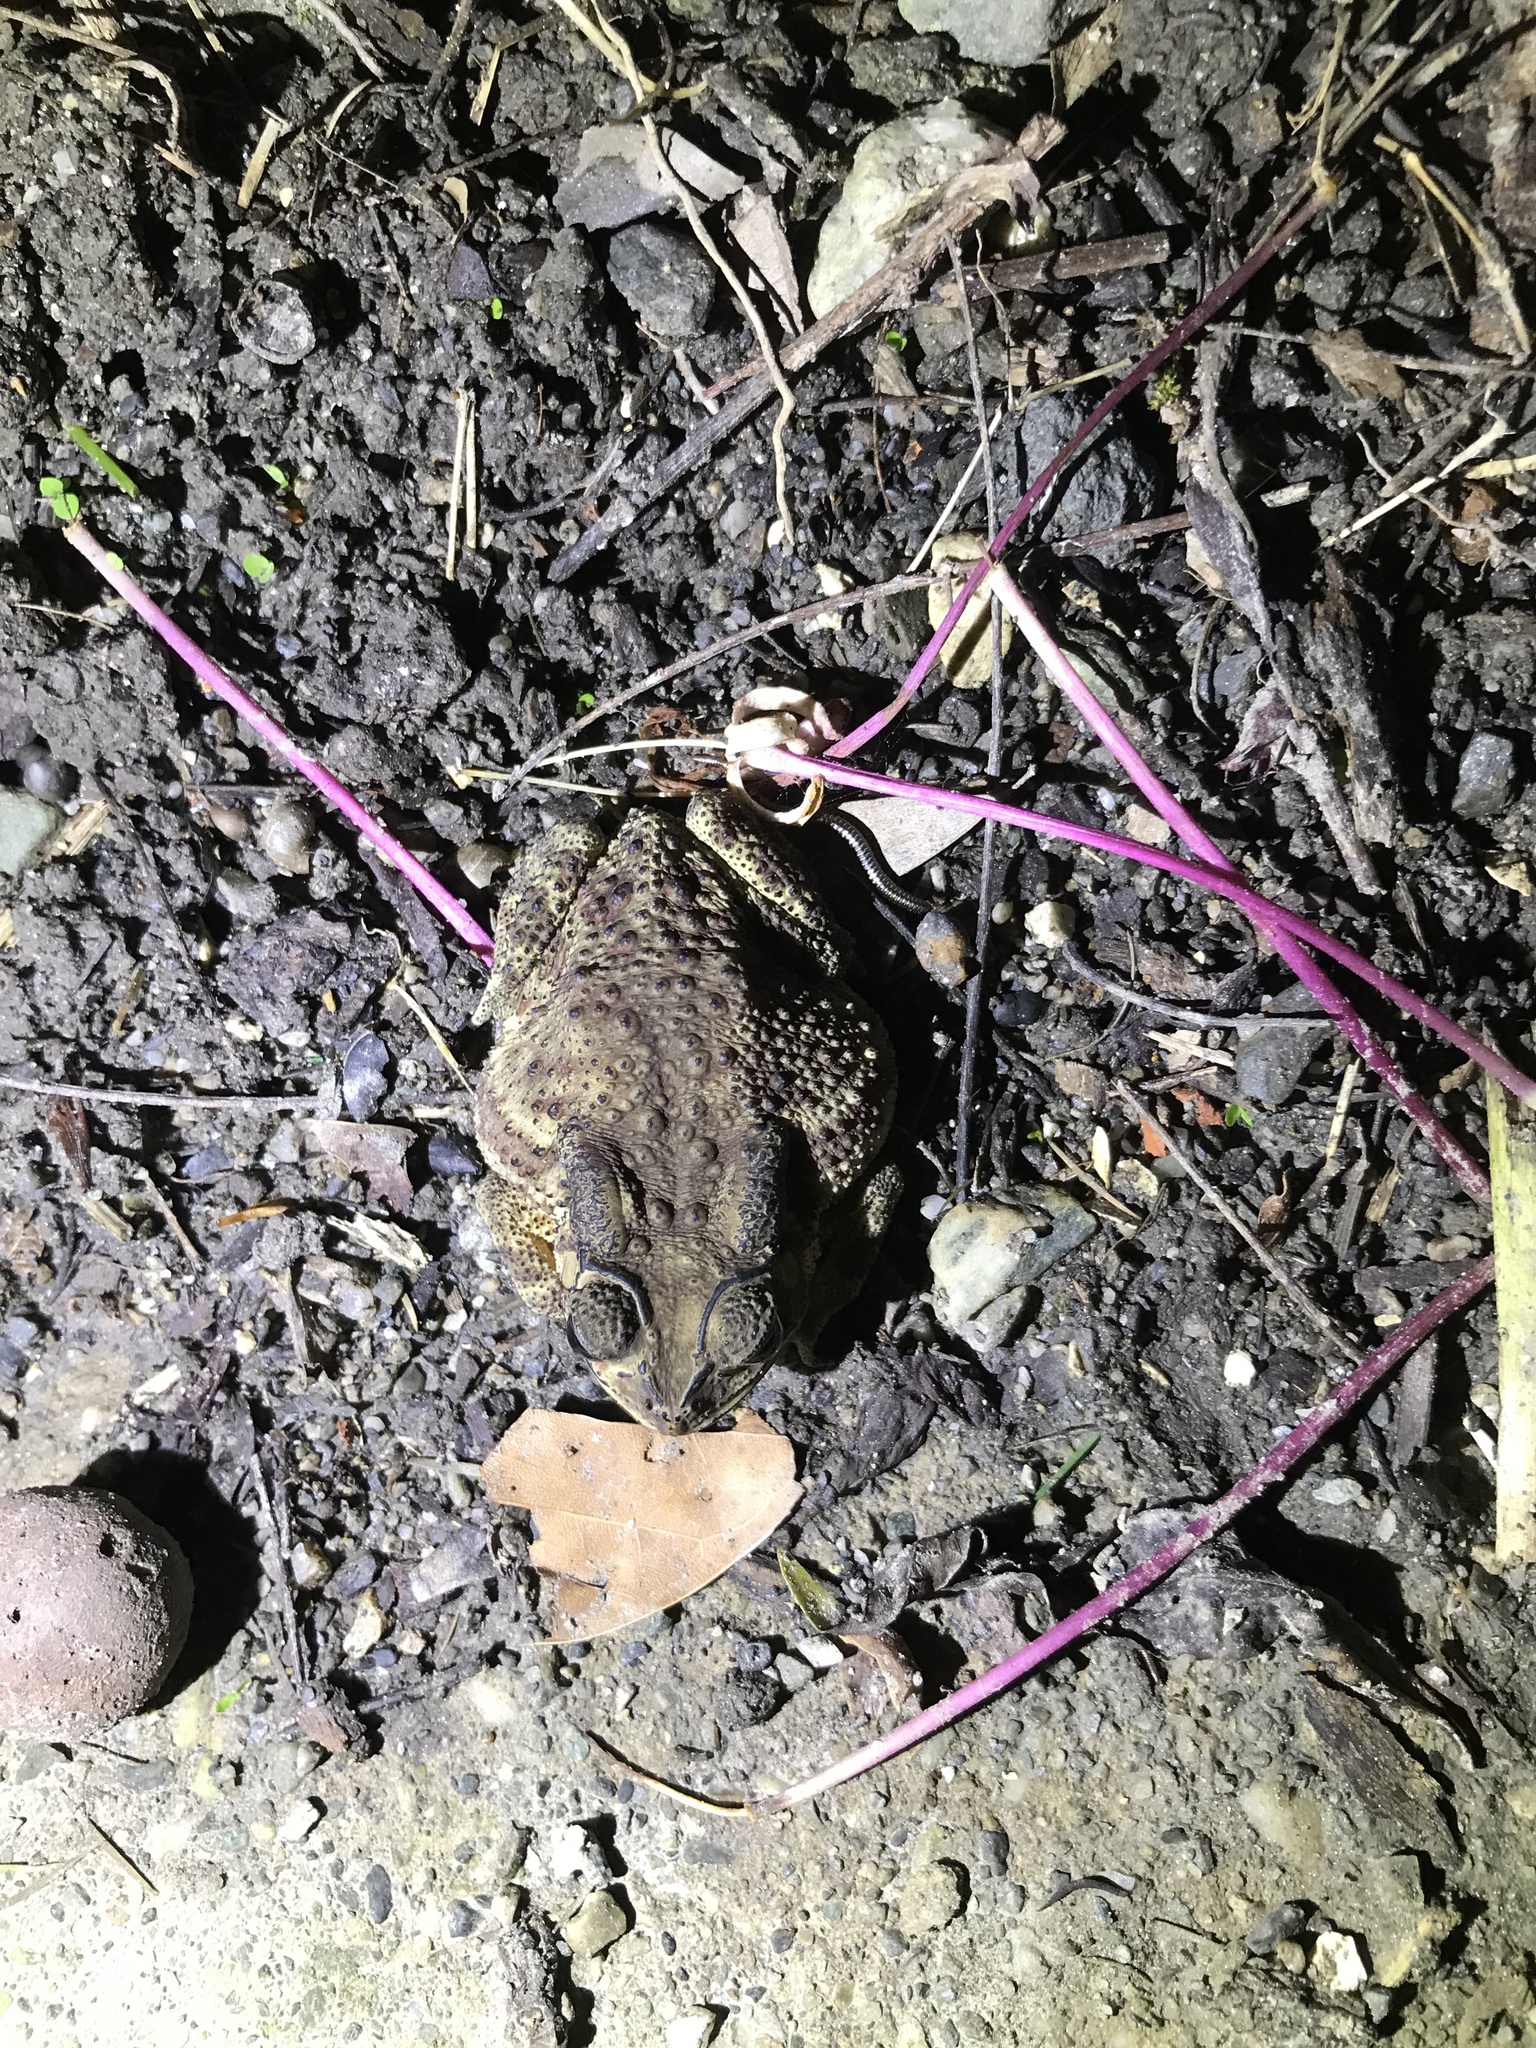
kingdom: Animalia
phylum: Chordata
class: Amphibia
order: Anura
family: Bufonidae
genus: Duttaphrynus
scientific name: Duttaphrynus melanostictus
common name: Common sunda toad
